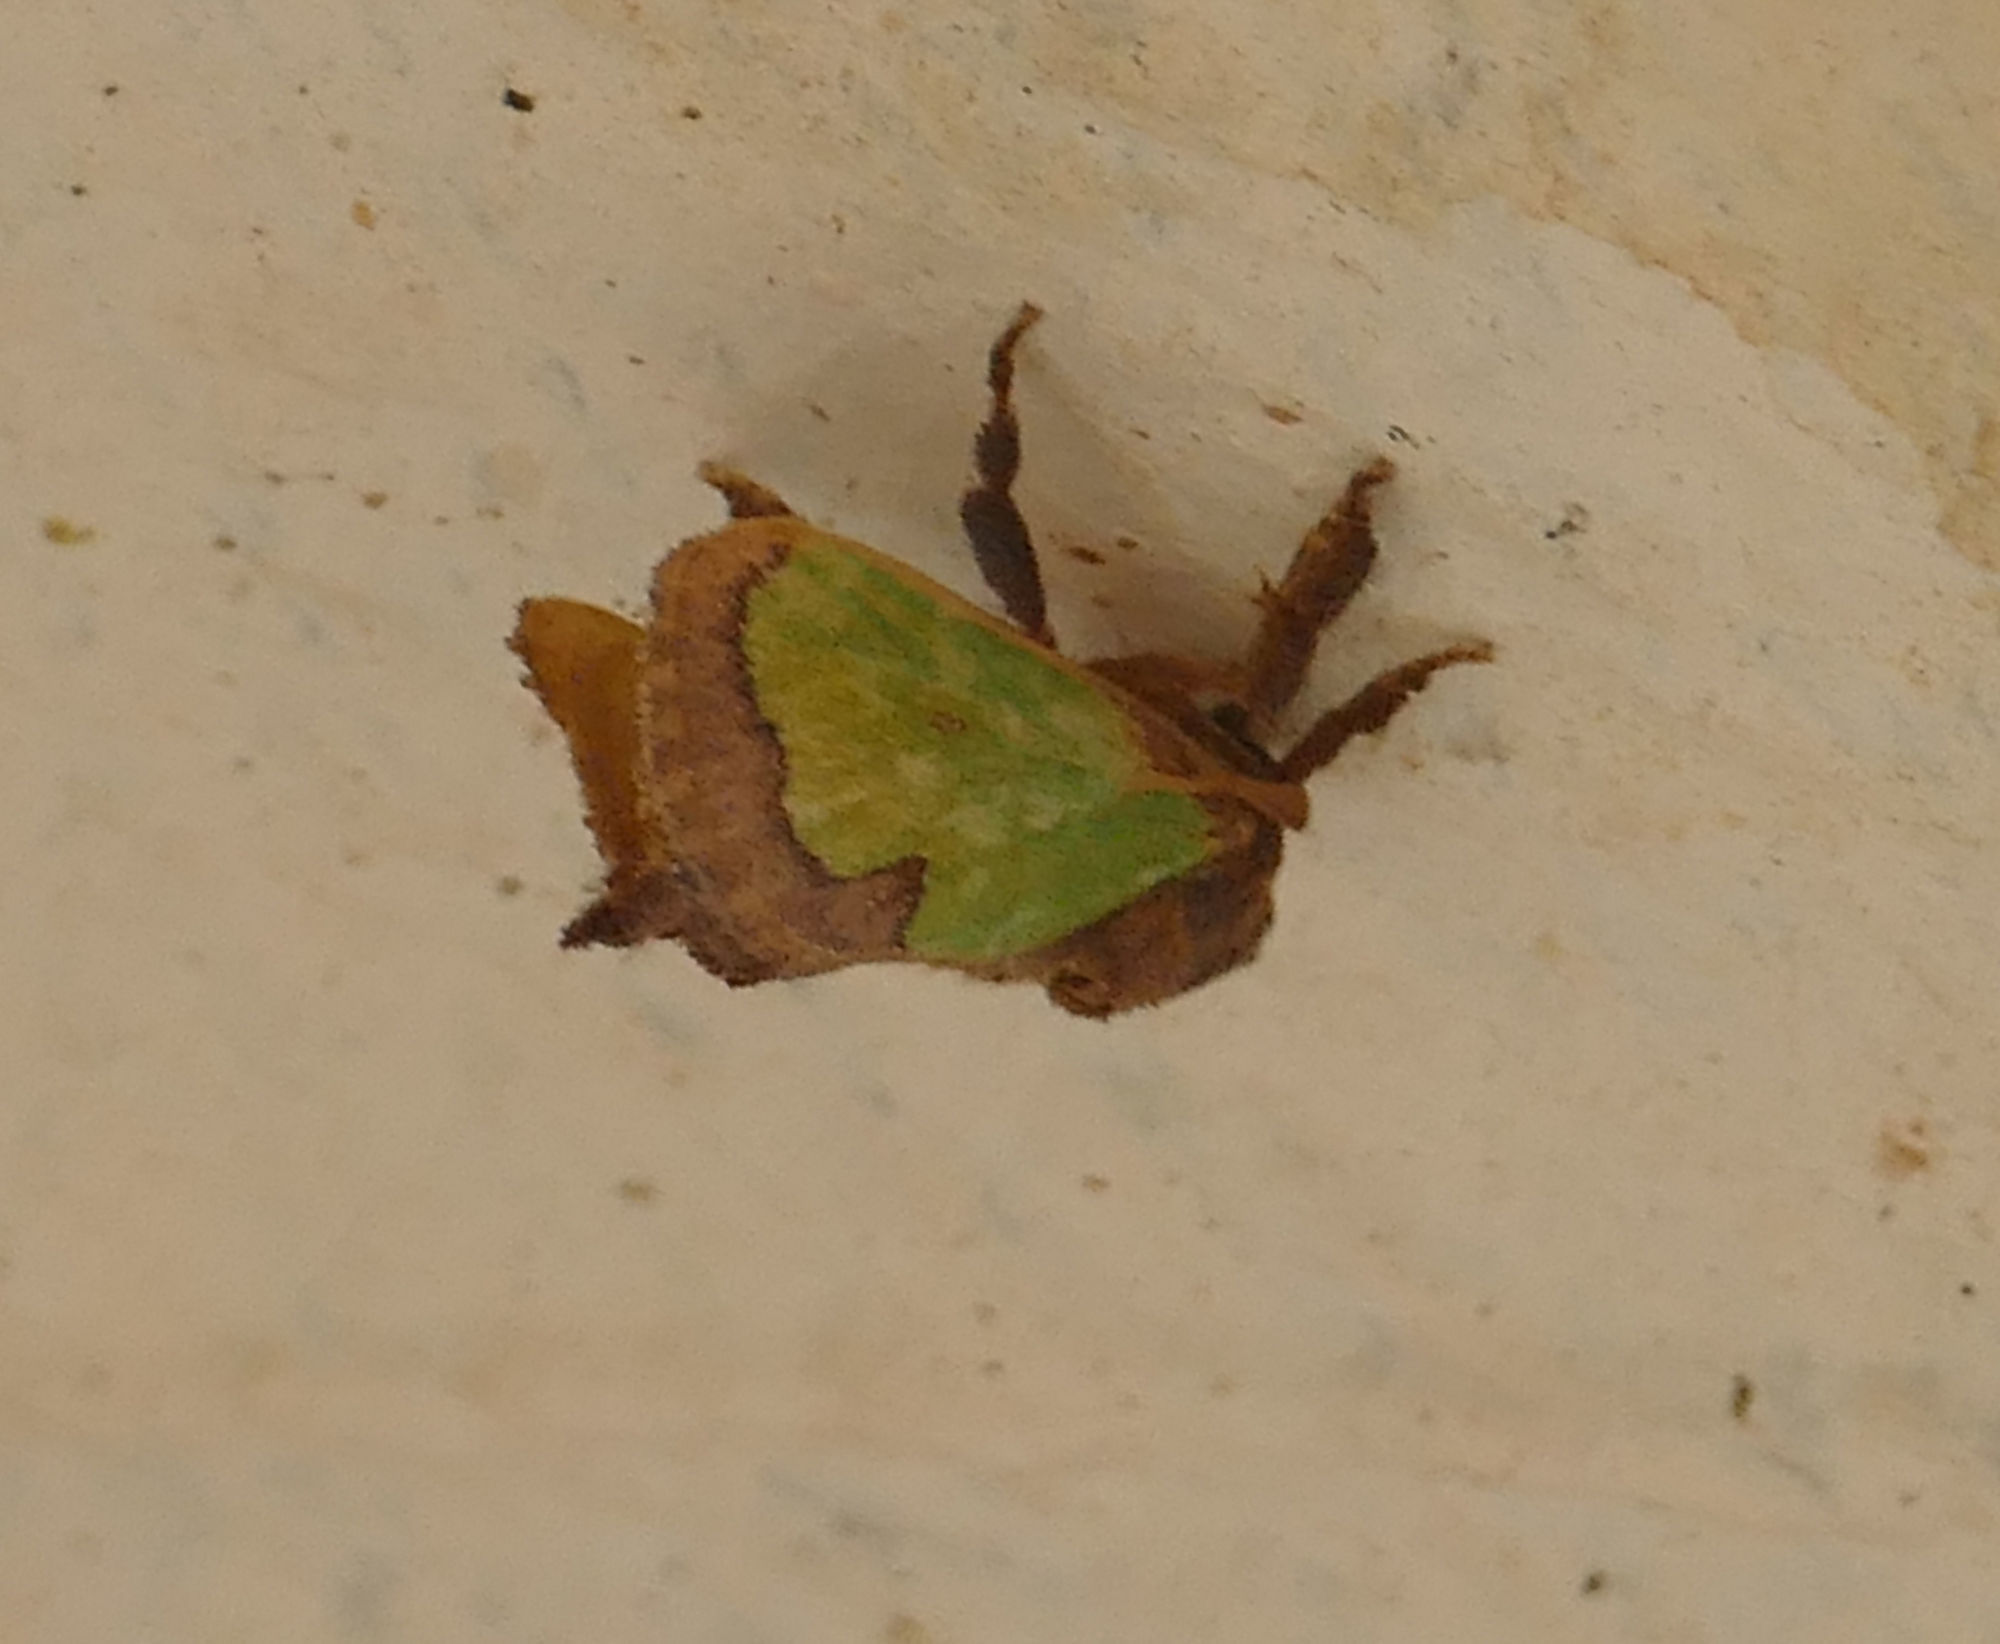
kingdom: Animalia
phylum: Arthropoda
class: Insecta
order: Lepidoptera
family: Limacodidae
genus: Euclea
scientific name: Euclea incisa
